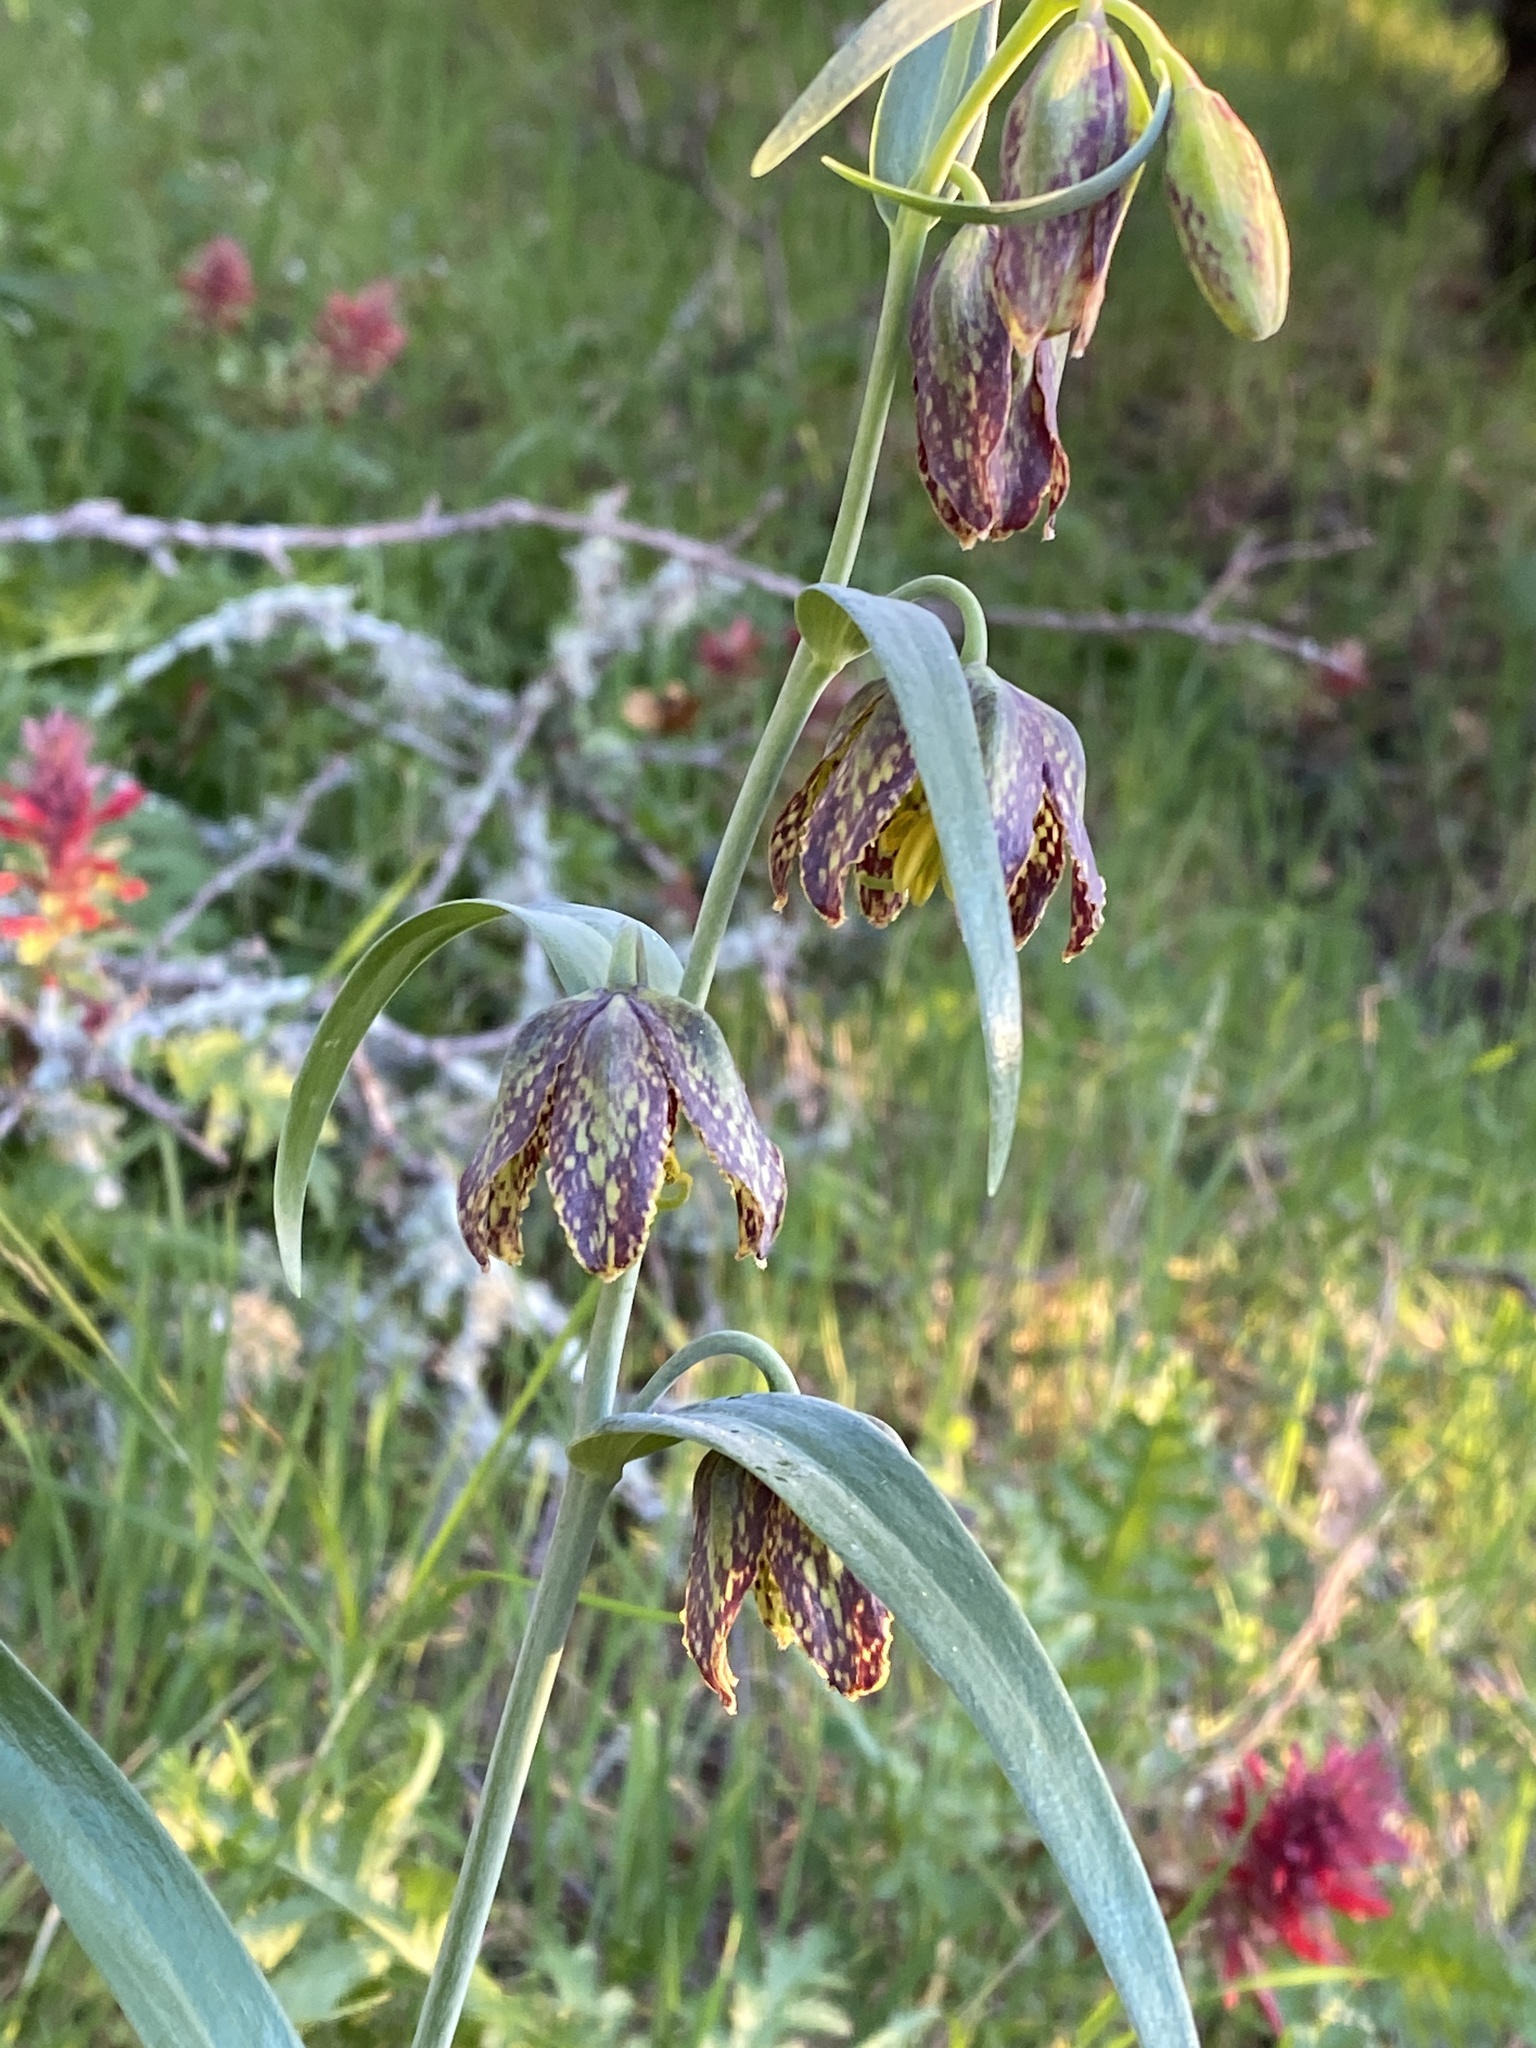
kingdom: Plantae
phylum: Tracheophyta
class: Liliopsida
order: Liliales
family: Liliaceae
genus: Fritillaria
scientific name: Fritillaria affinis
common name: Ojai fritillary
